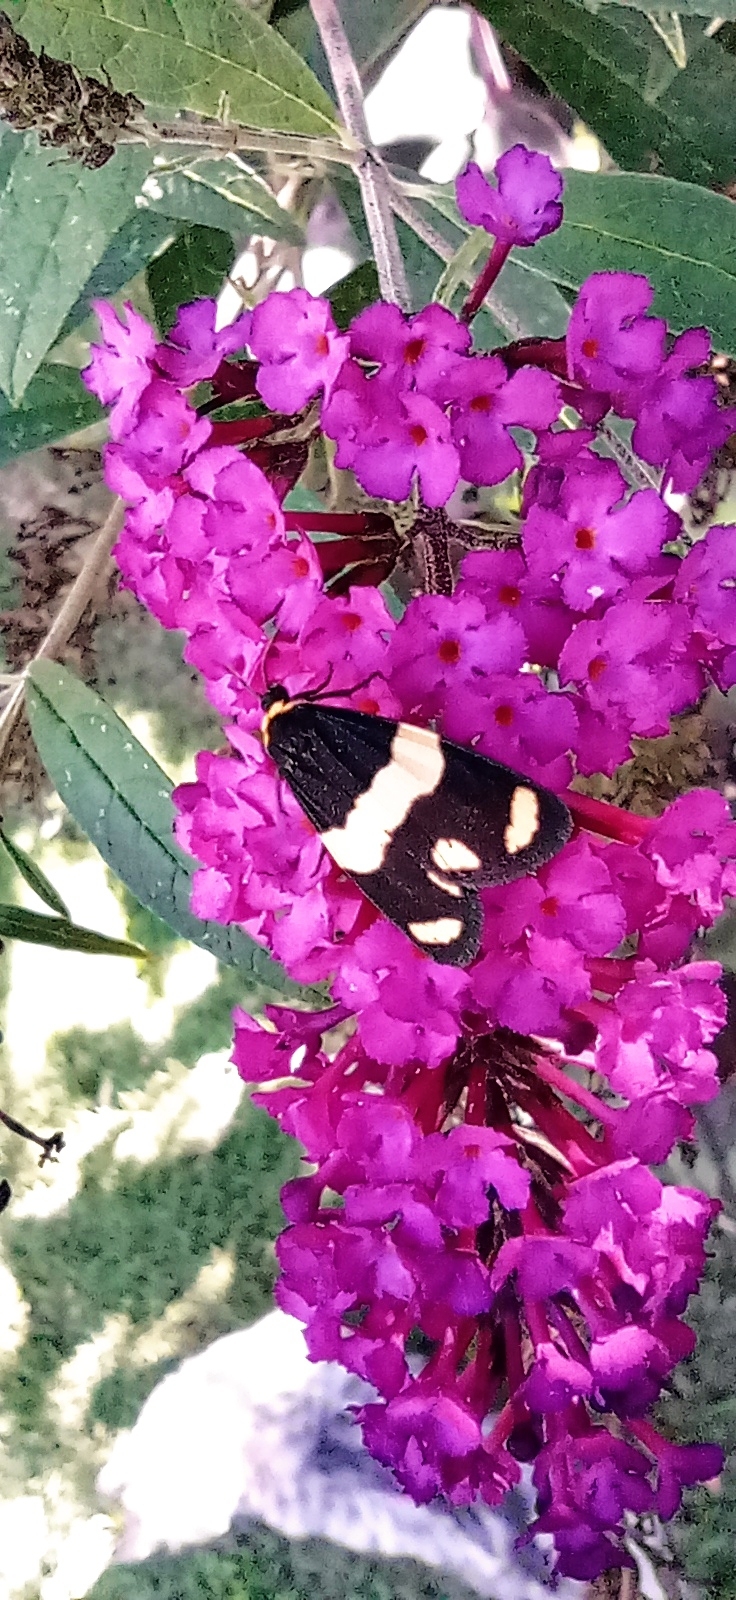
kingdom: Animalia
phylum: Arthropoda
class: Insecta
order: Lepidoptera
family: Erebidae
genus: Eudesmia
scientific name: Eudesmia
